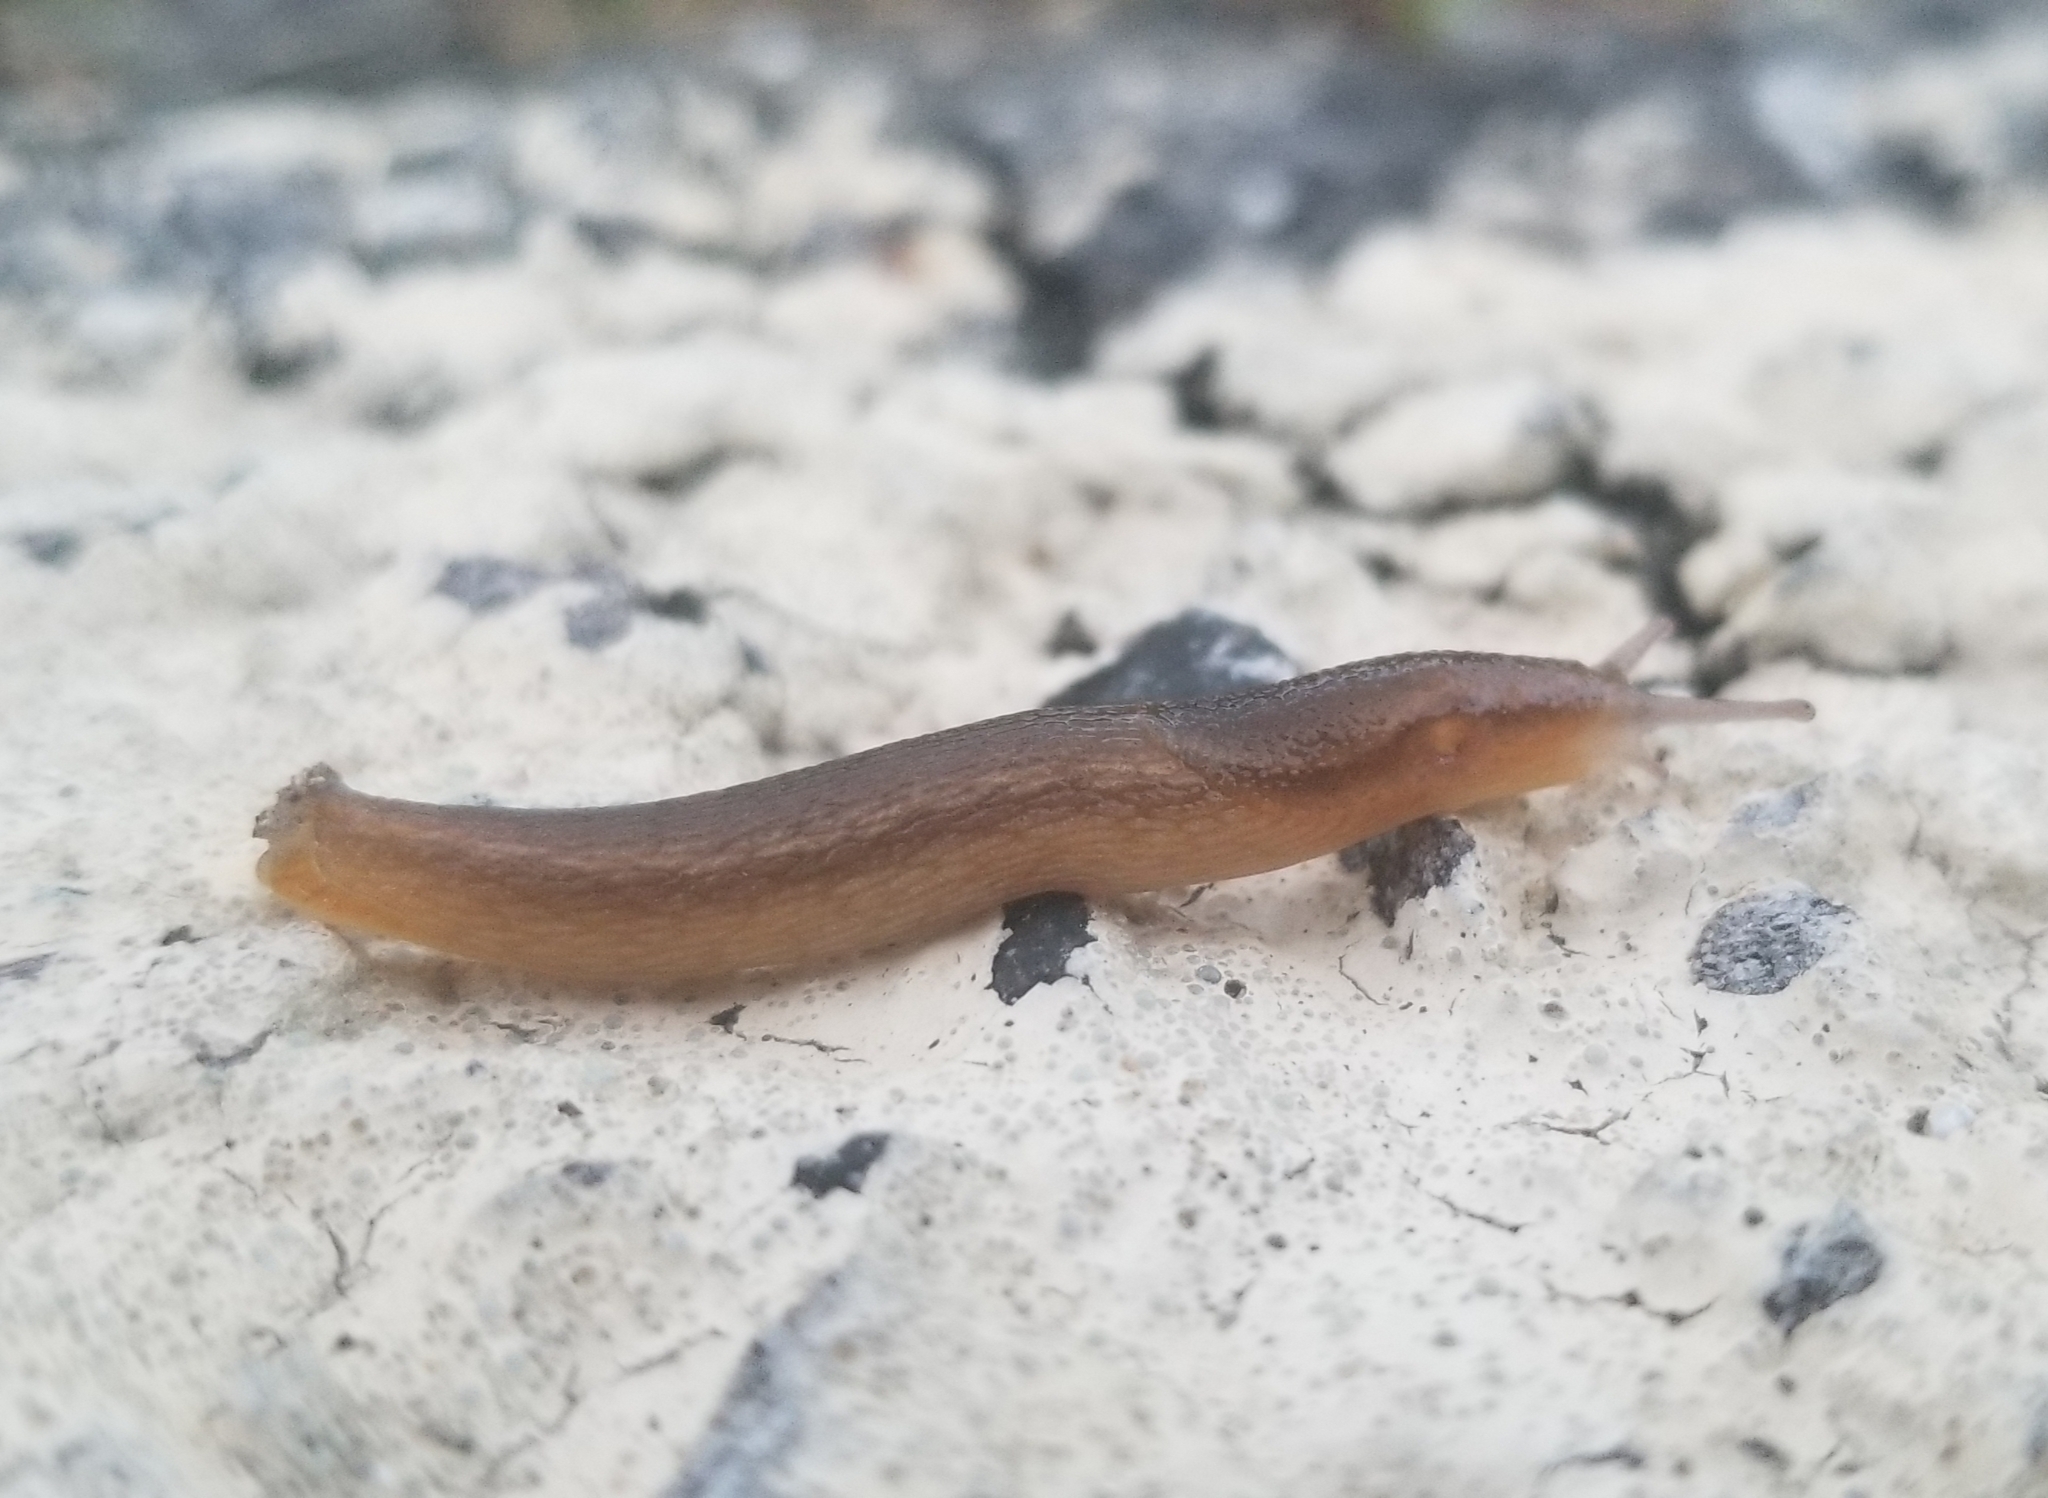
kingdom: Animalia
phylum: Mollusca
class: Gastropoda
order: Stylommatophora
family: Arionidae
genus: Arion
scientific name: Arion subfuscus
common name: Dusky arion
